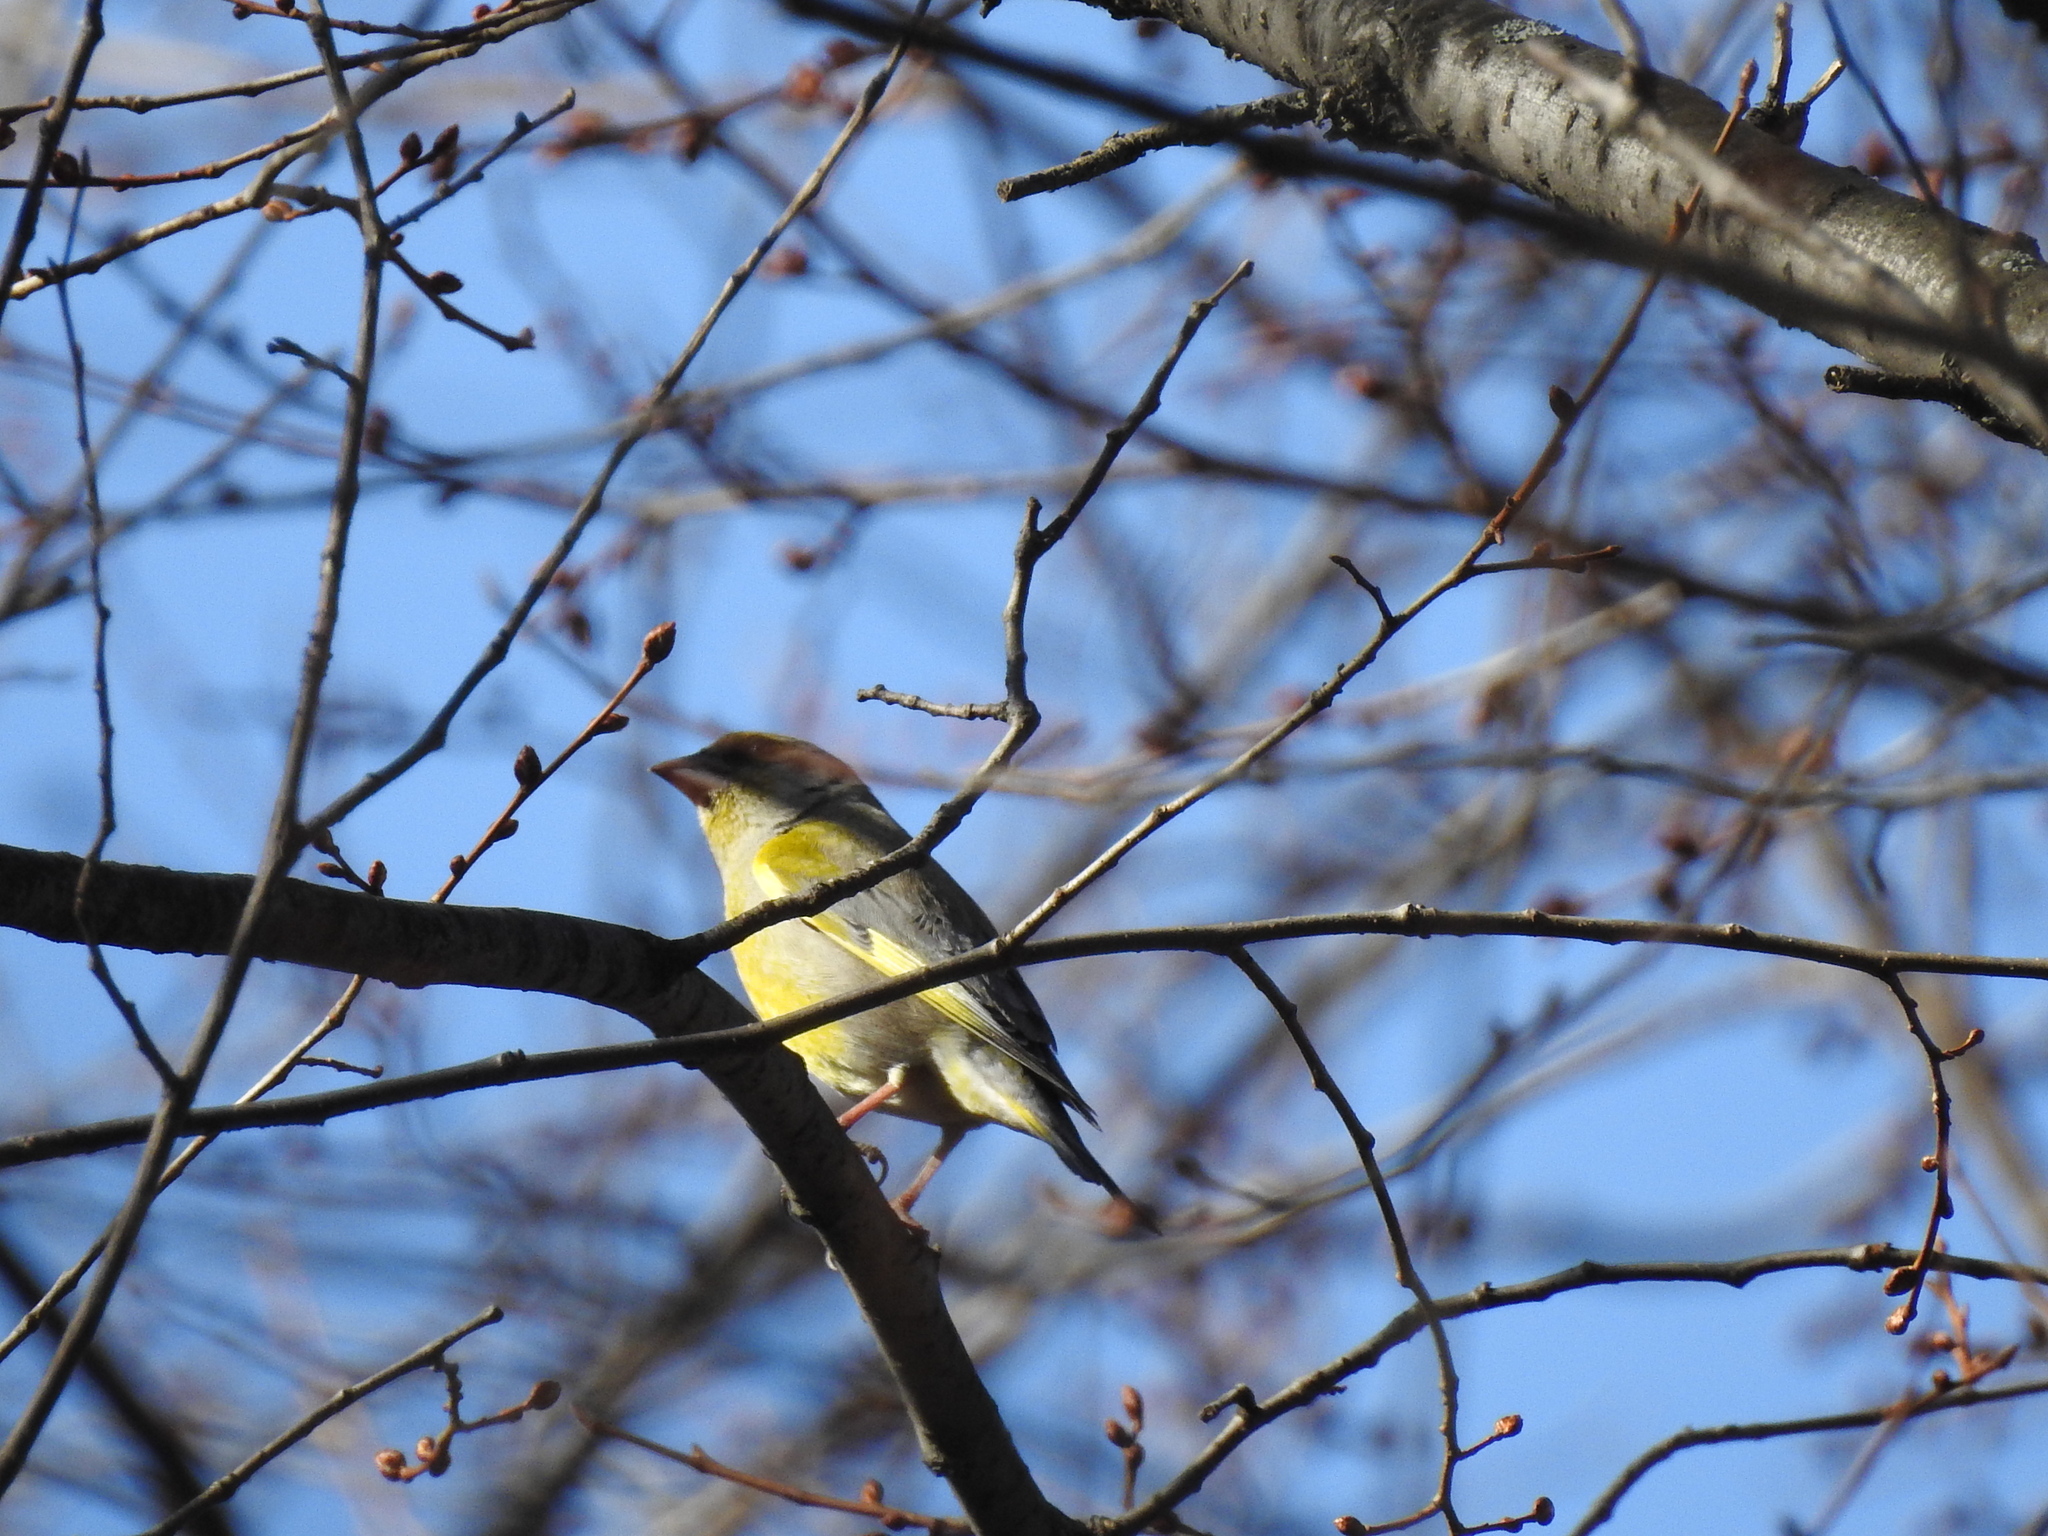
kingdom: Plantae
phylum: Tracheophyta
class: Liliopsida
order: Poales
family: Poaceae
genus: Chloris
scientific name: Chloris chloris
